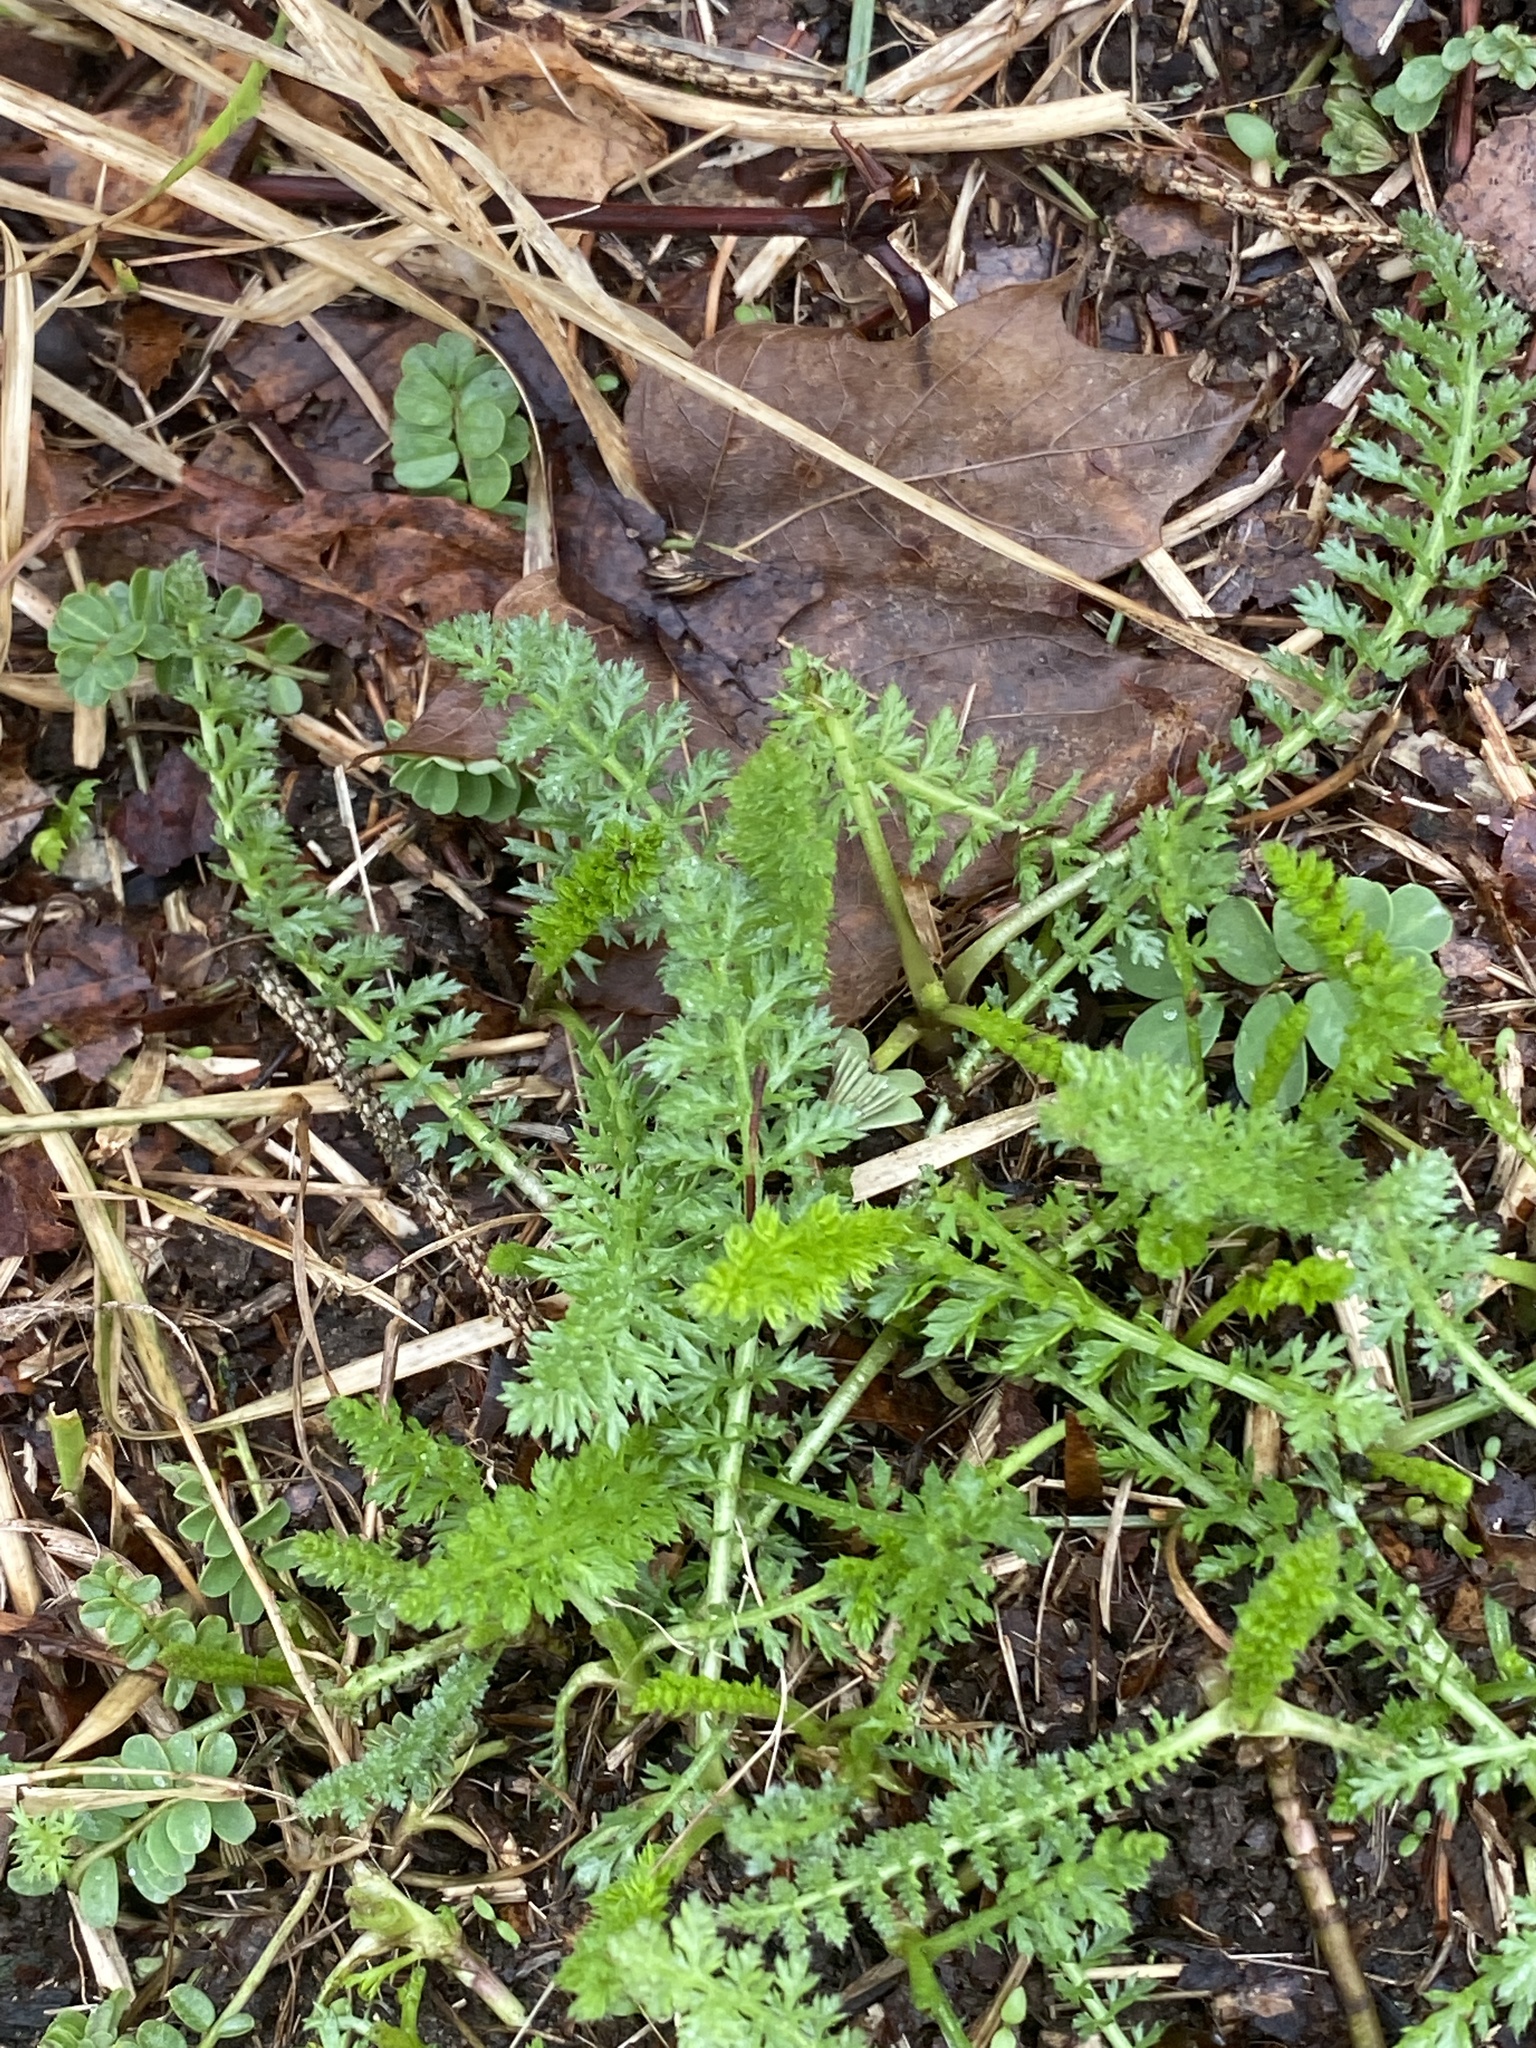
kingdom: Plantae
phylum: Tracheophyta
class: Magnoliopsida
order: Asterales
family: Asteraceae
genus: Achillea
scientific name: Achillea millefolium
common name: Yarrow
